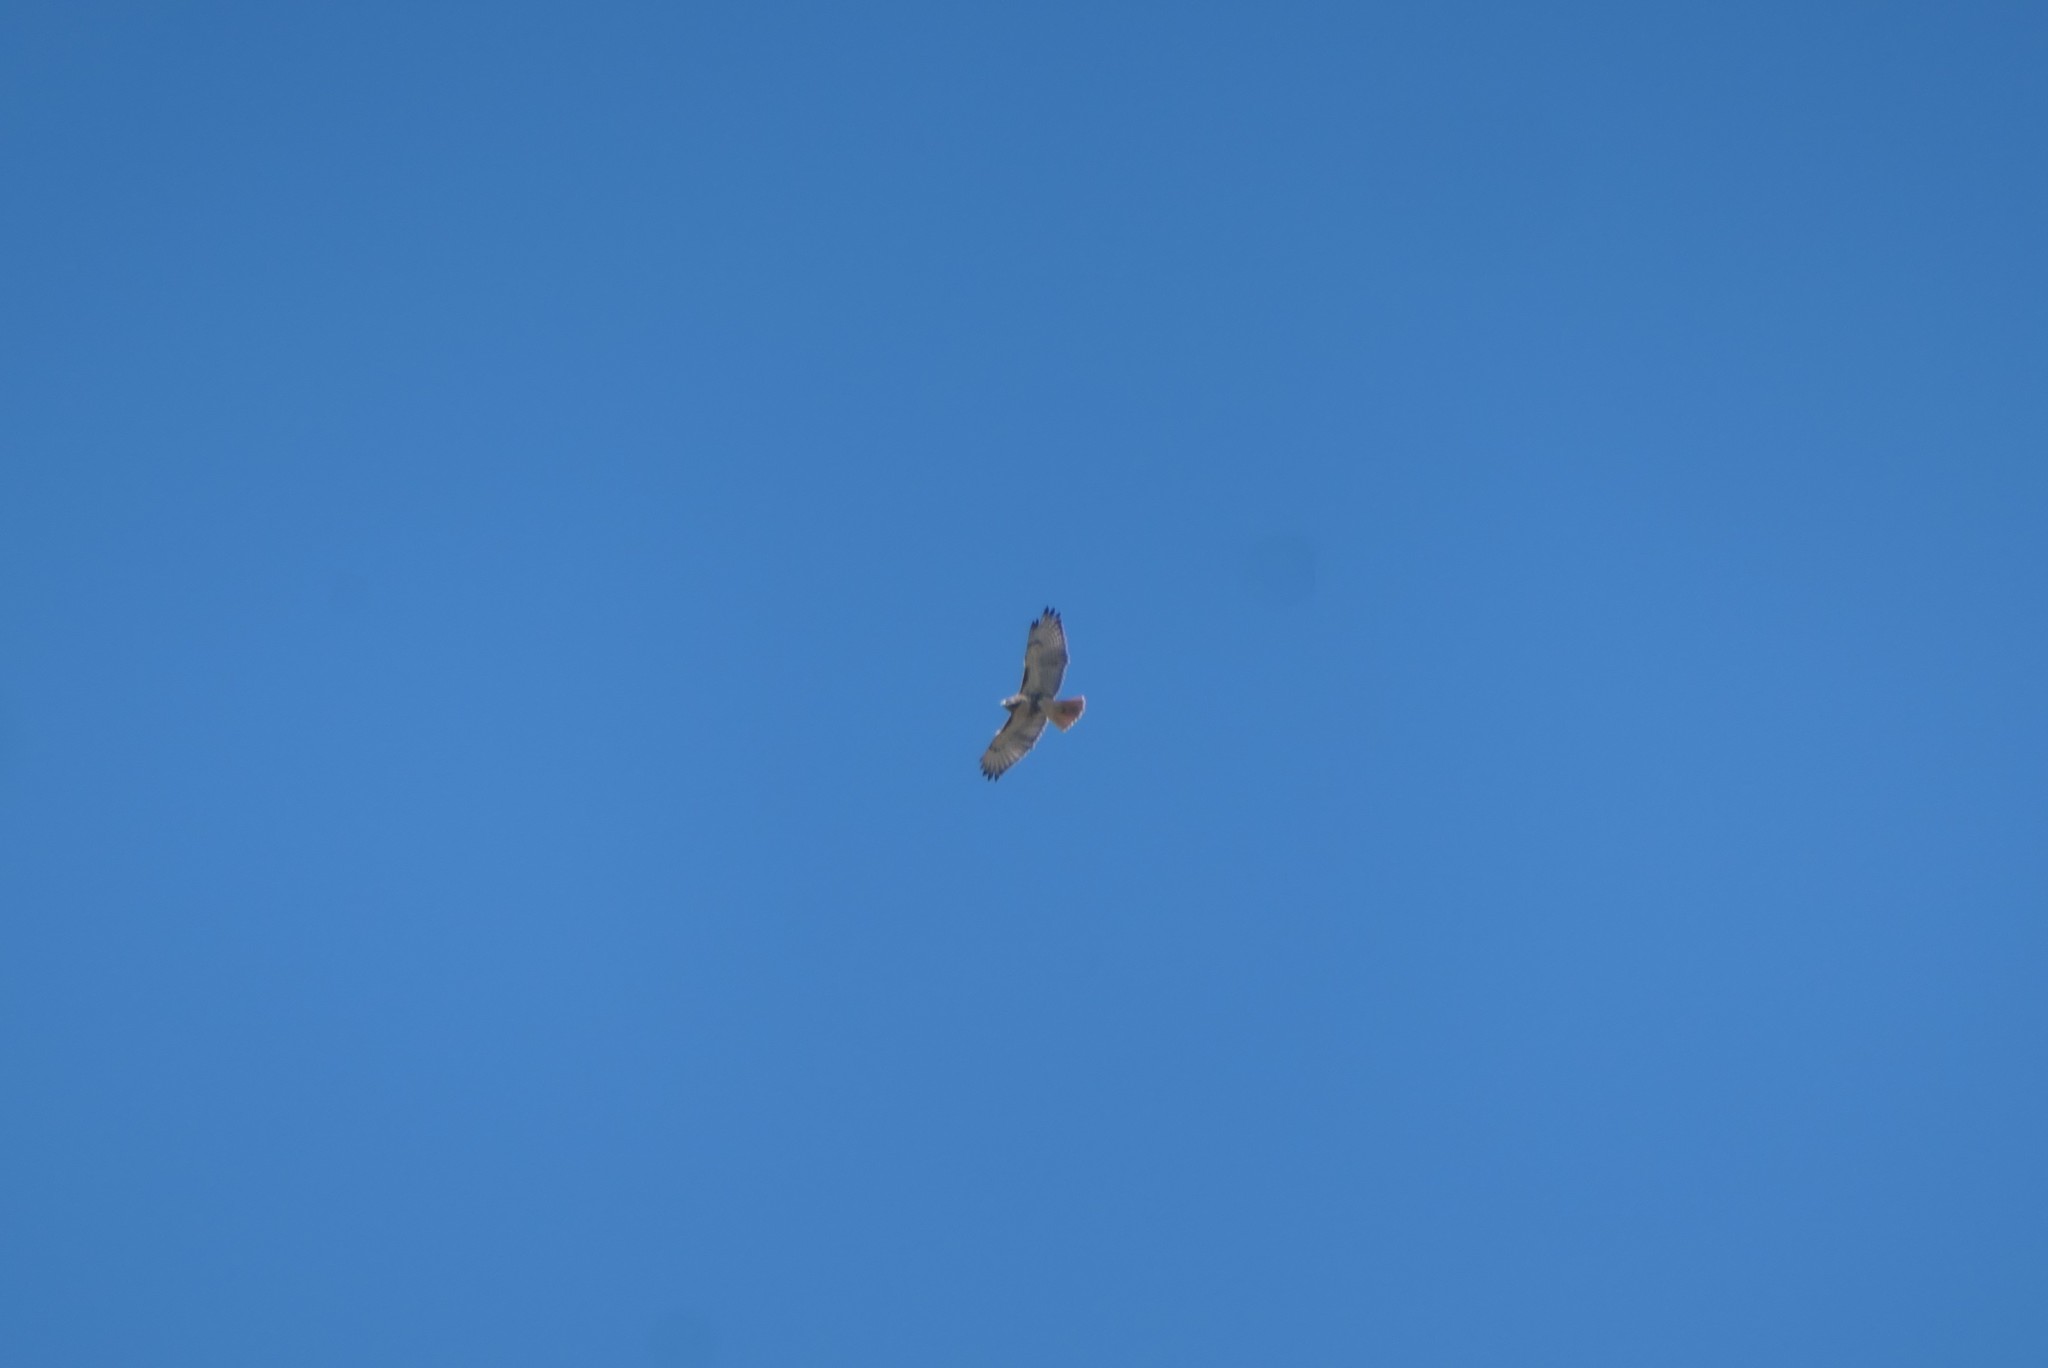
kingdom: Animalia
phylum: Chordata
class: Aves
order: Accipitriformes
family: Accipitridae
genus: Buteo
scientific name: Buteo jamaicensis
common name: Red-tailed hawk
